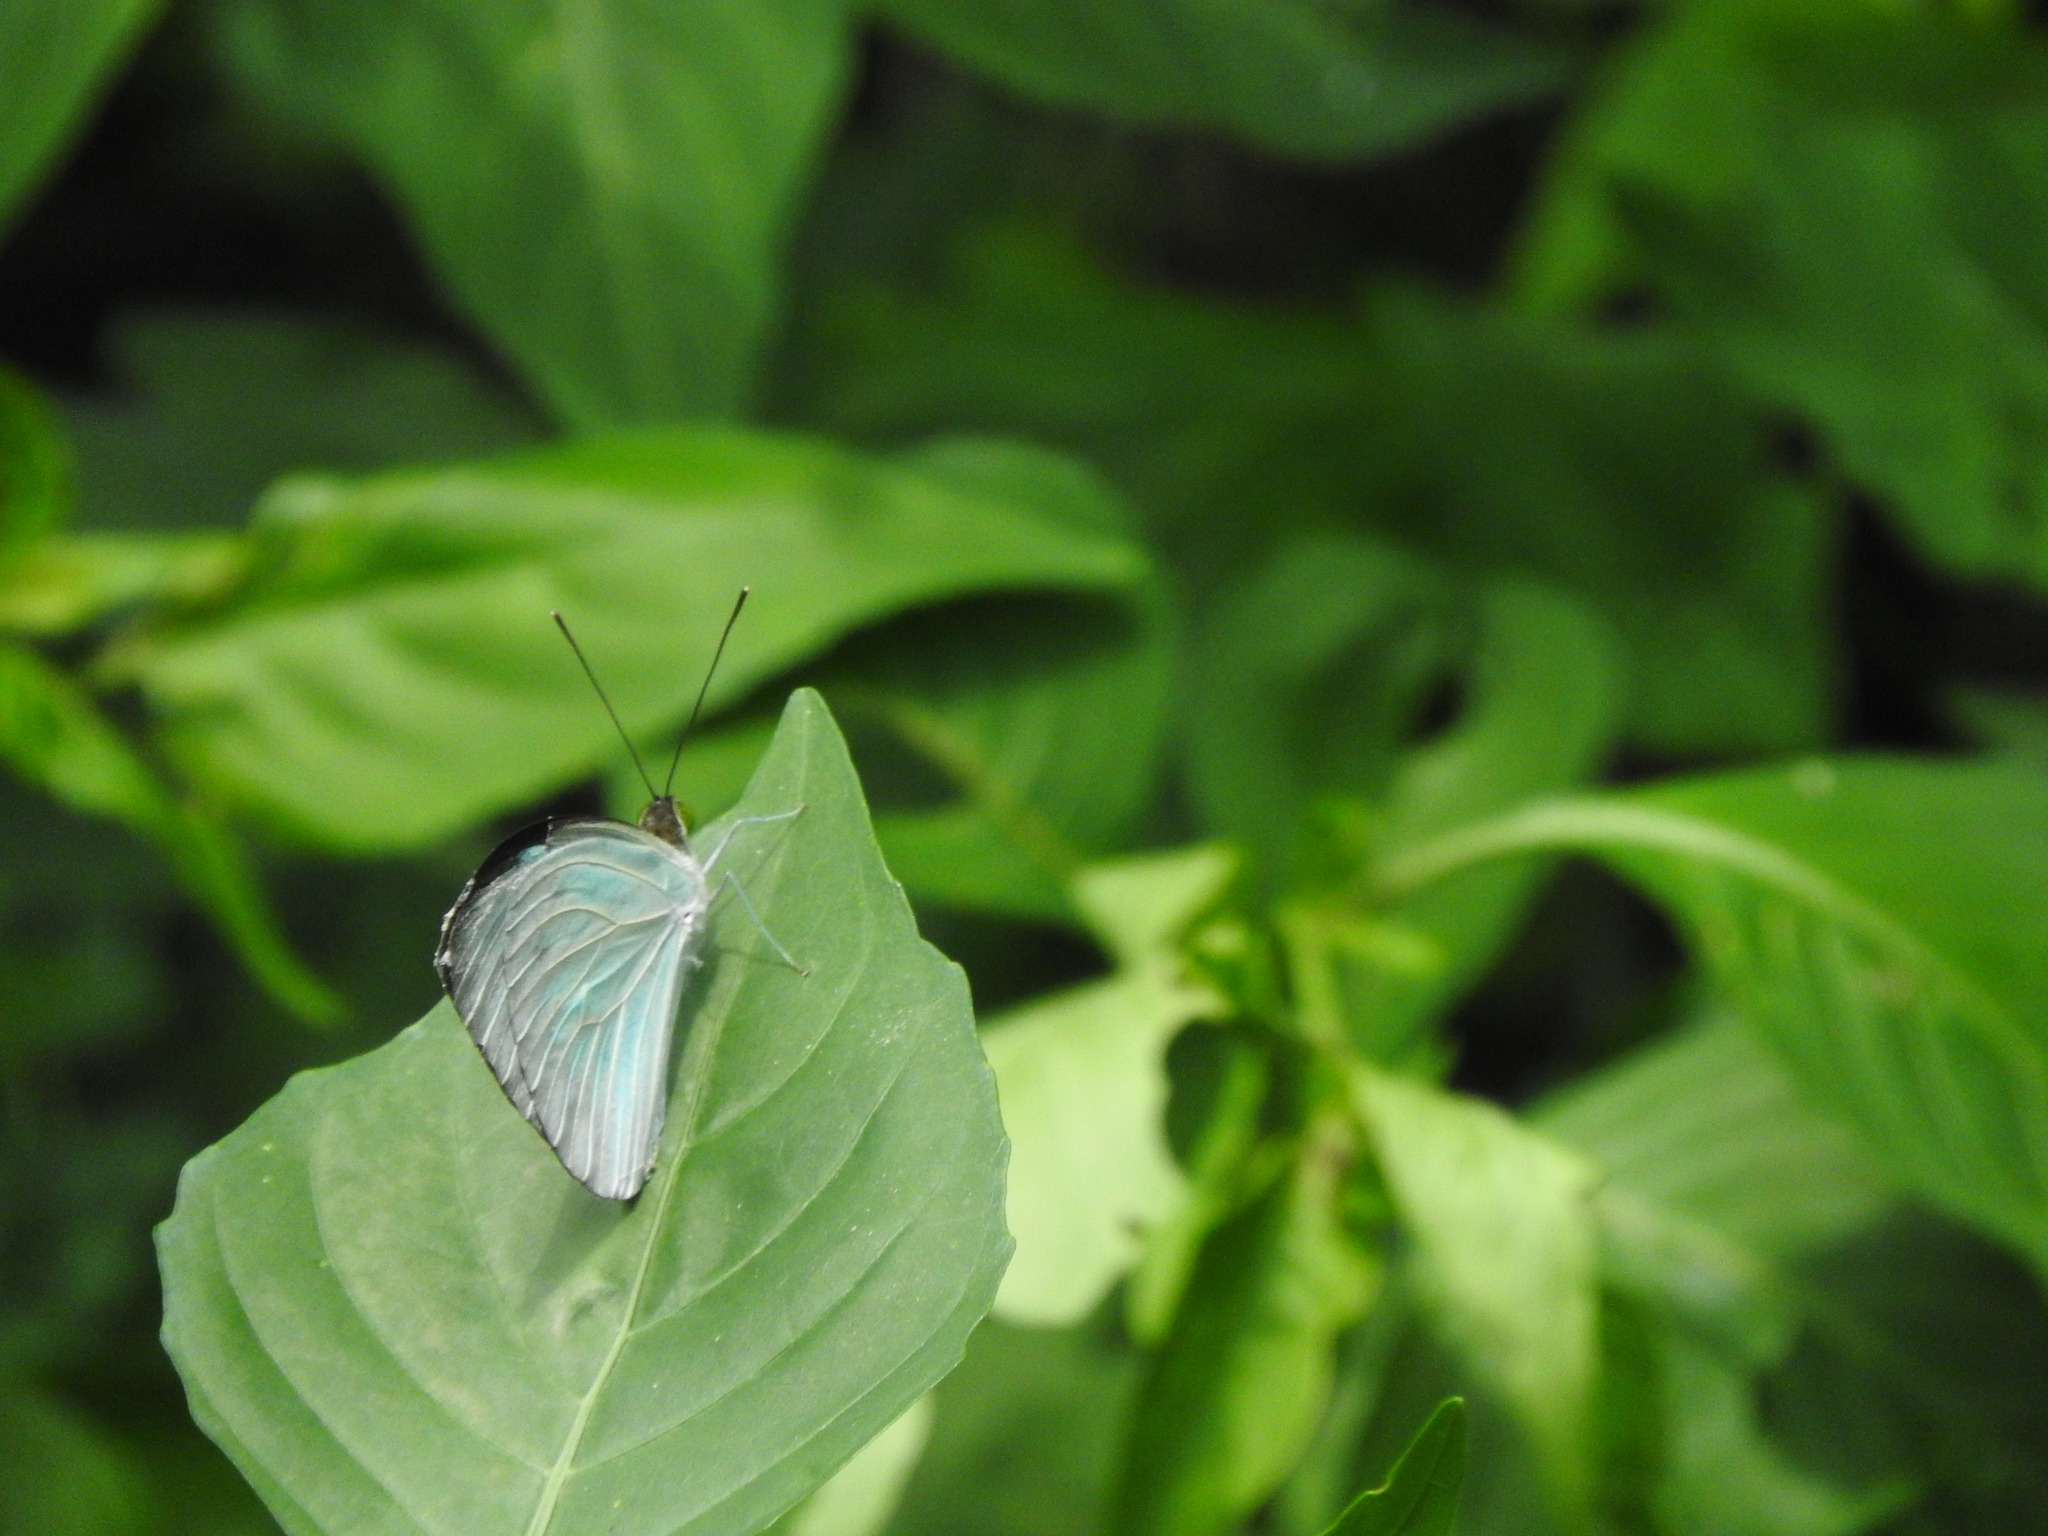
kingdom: Animalia
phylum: Arthropoda
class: Insecta
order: Lepidoptera
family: Pieridae
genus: Pareronia
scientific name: Pareronia ceylanica
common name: Dark wanderer
